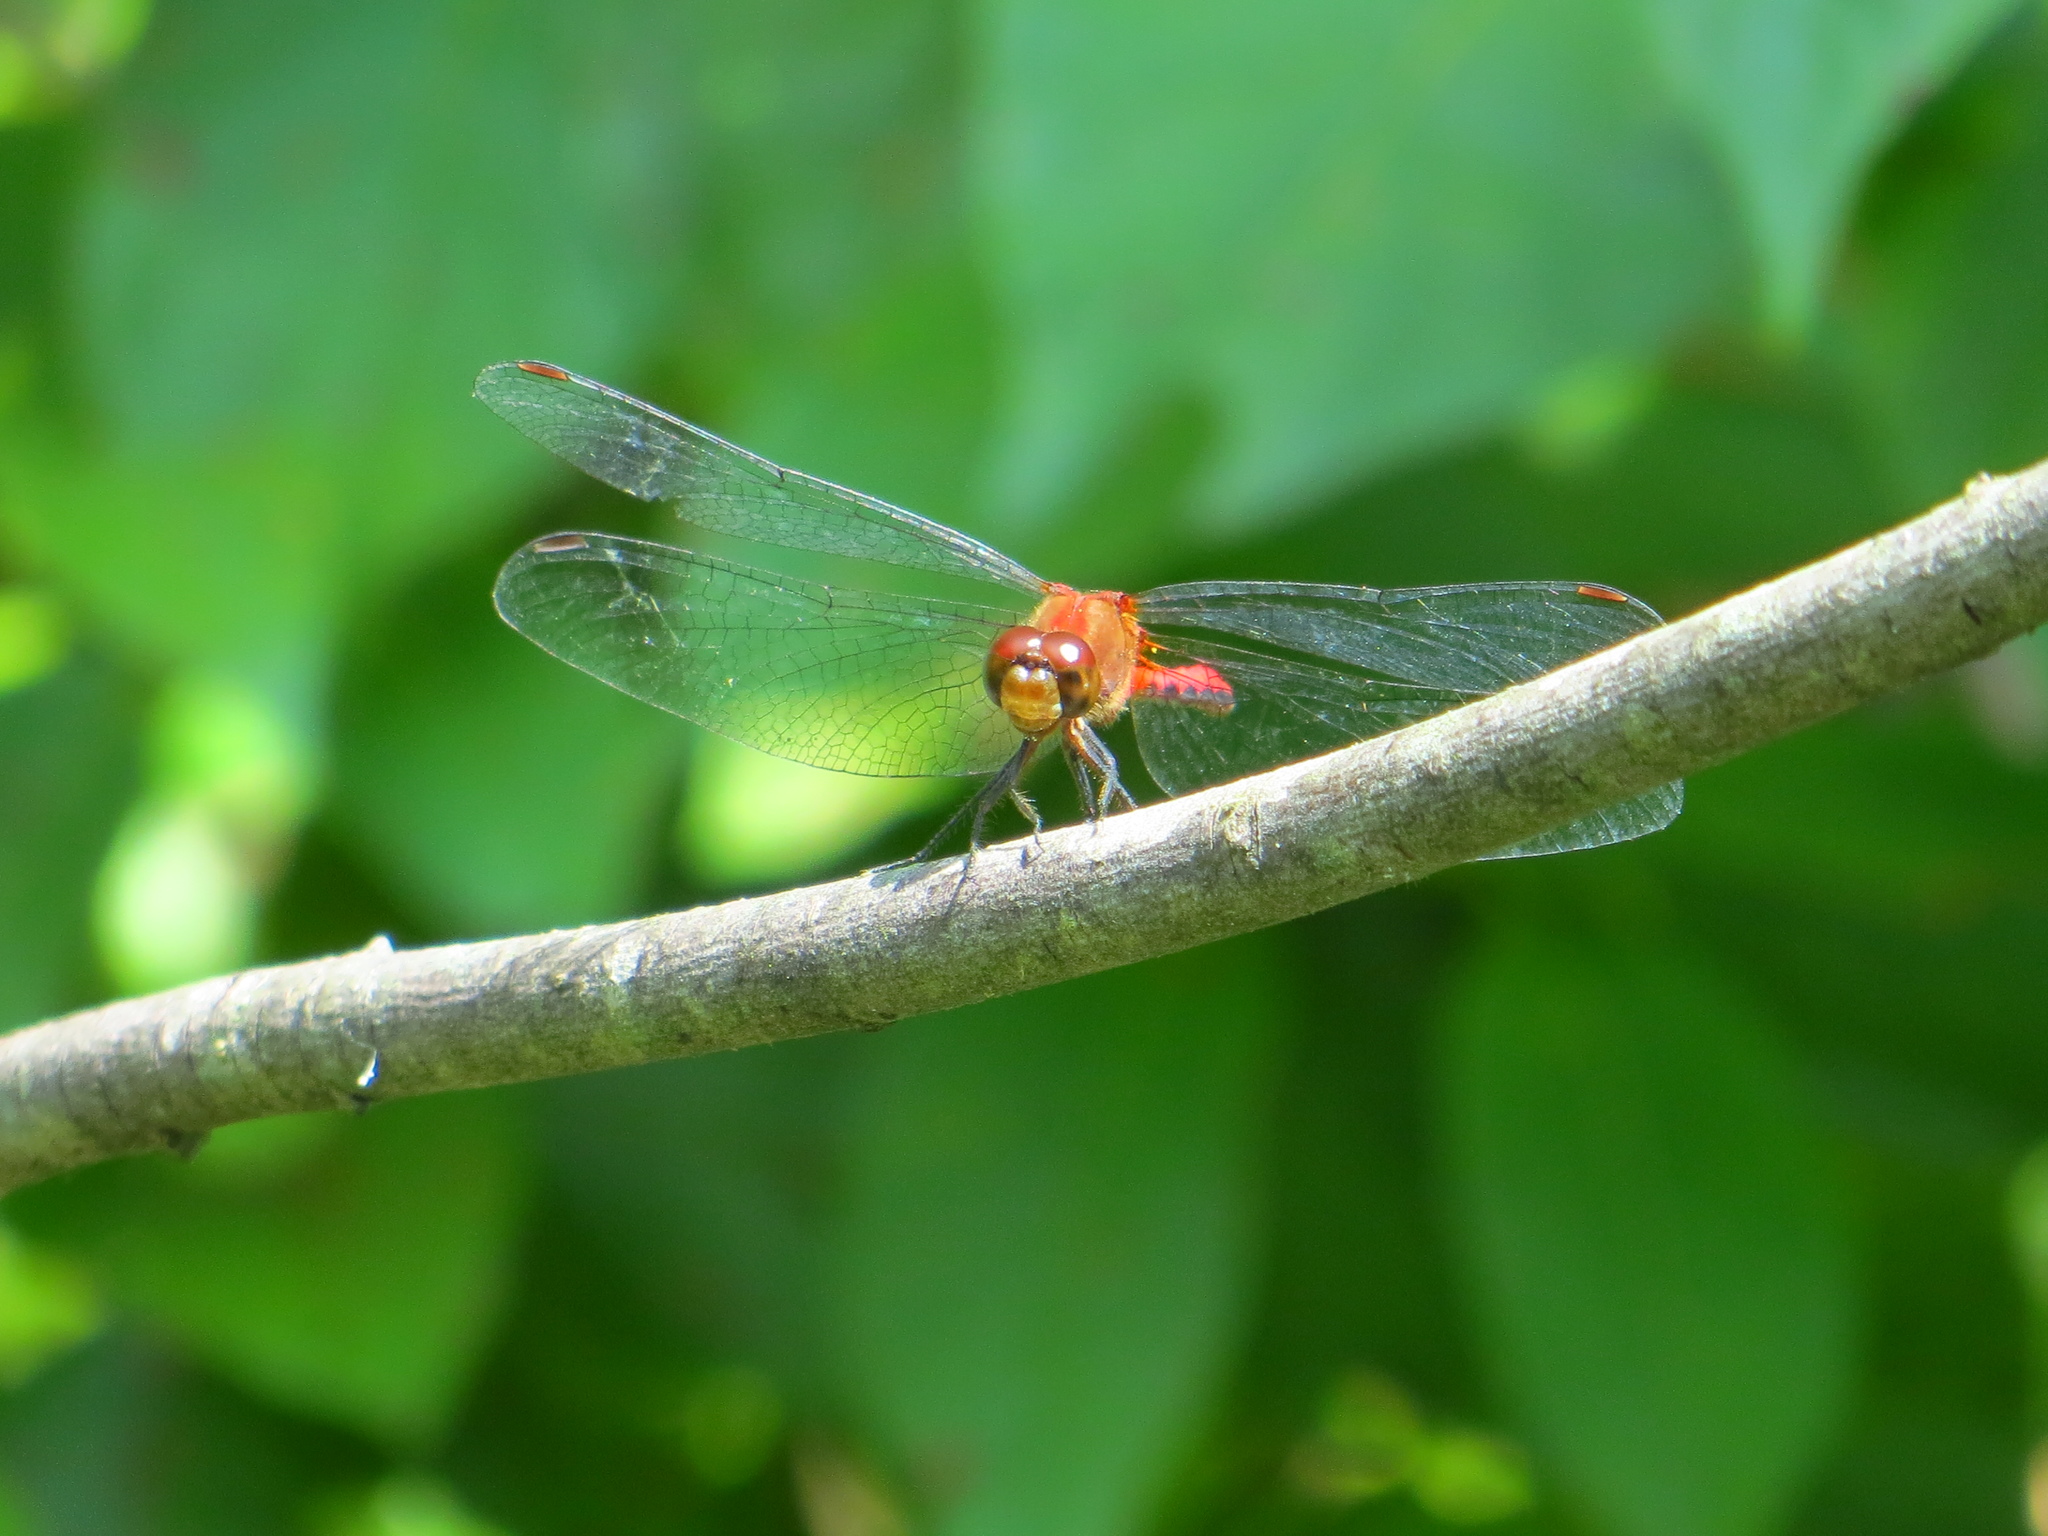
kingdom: Animalia
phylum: Arthropoda
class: Insecta
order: Odonata
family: Libellulidae
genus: Sympetrum
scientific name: Sympetrum
